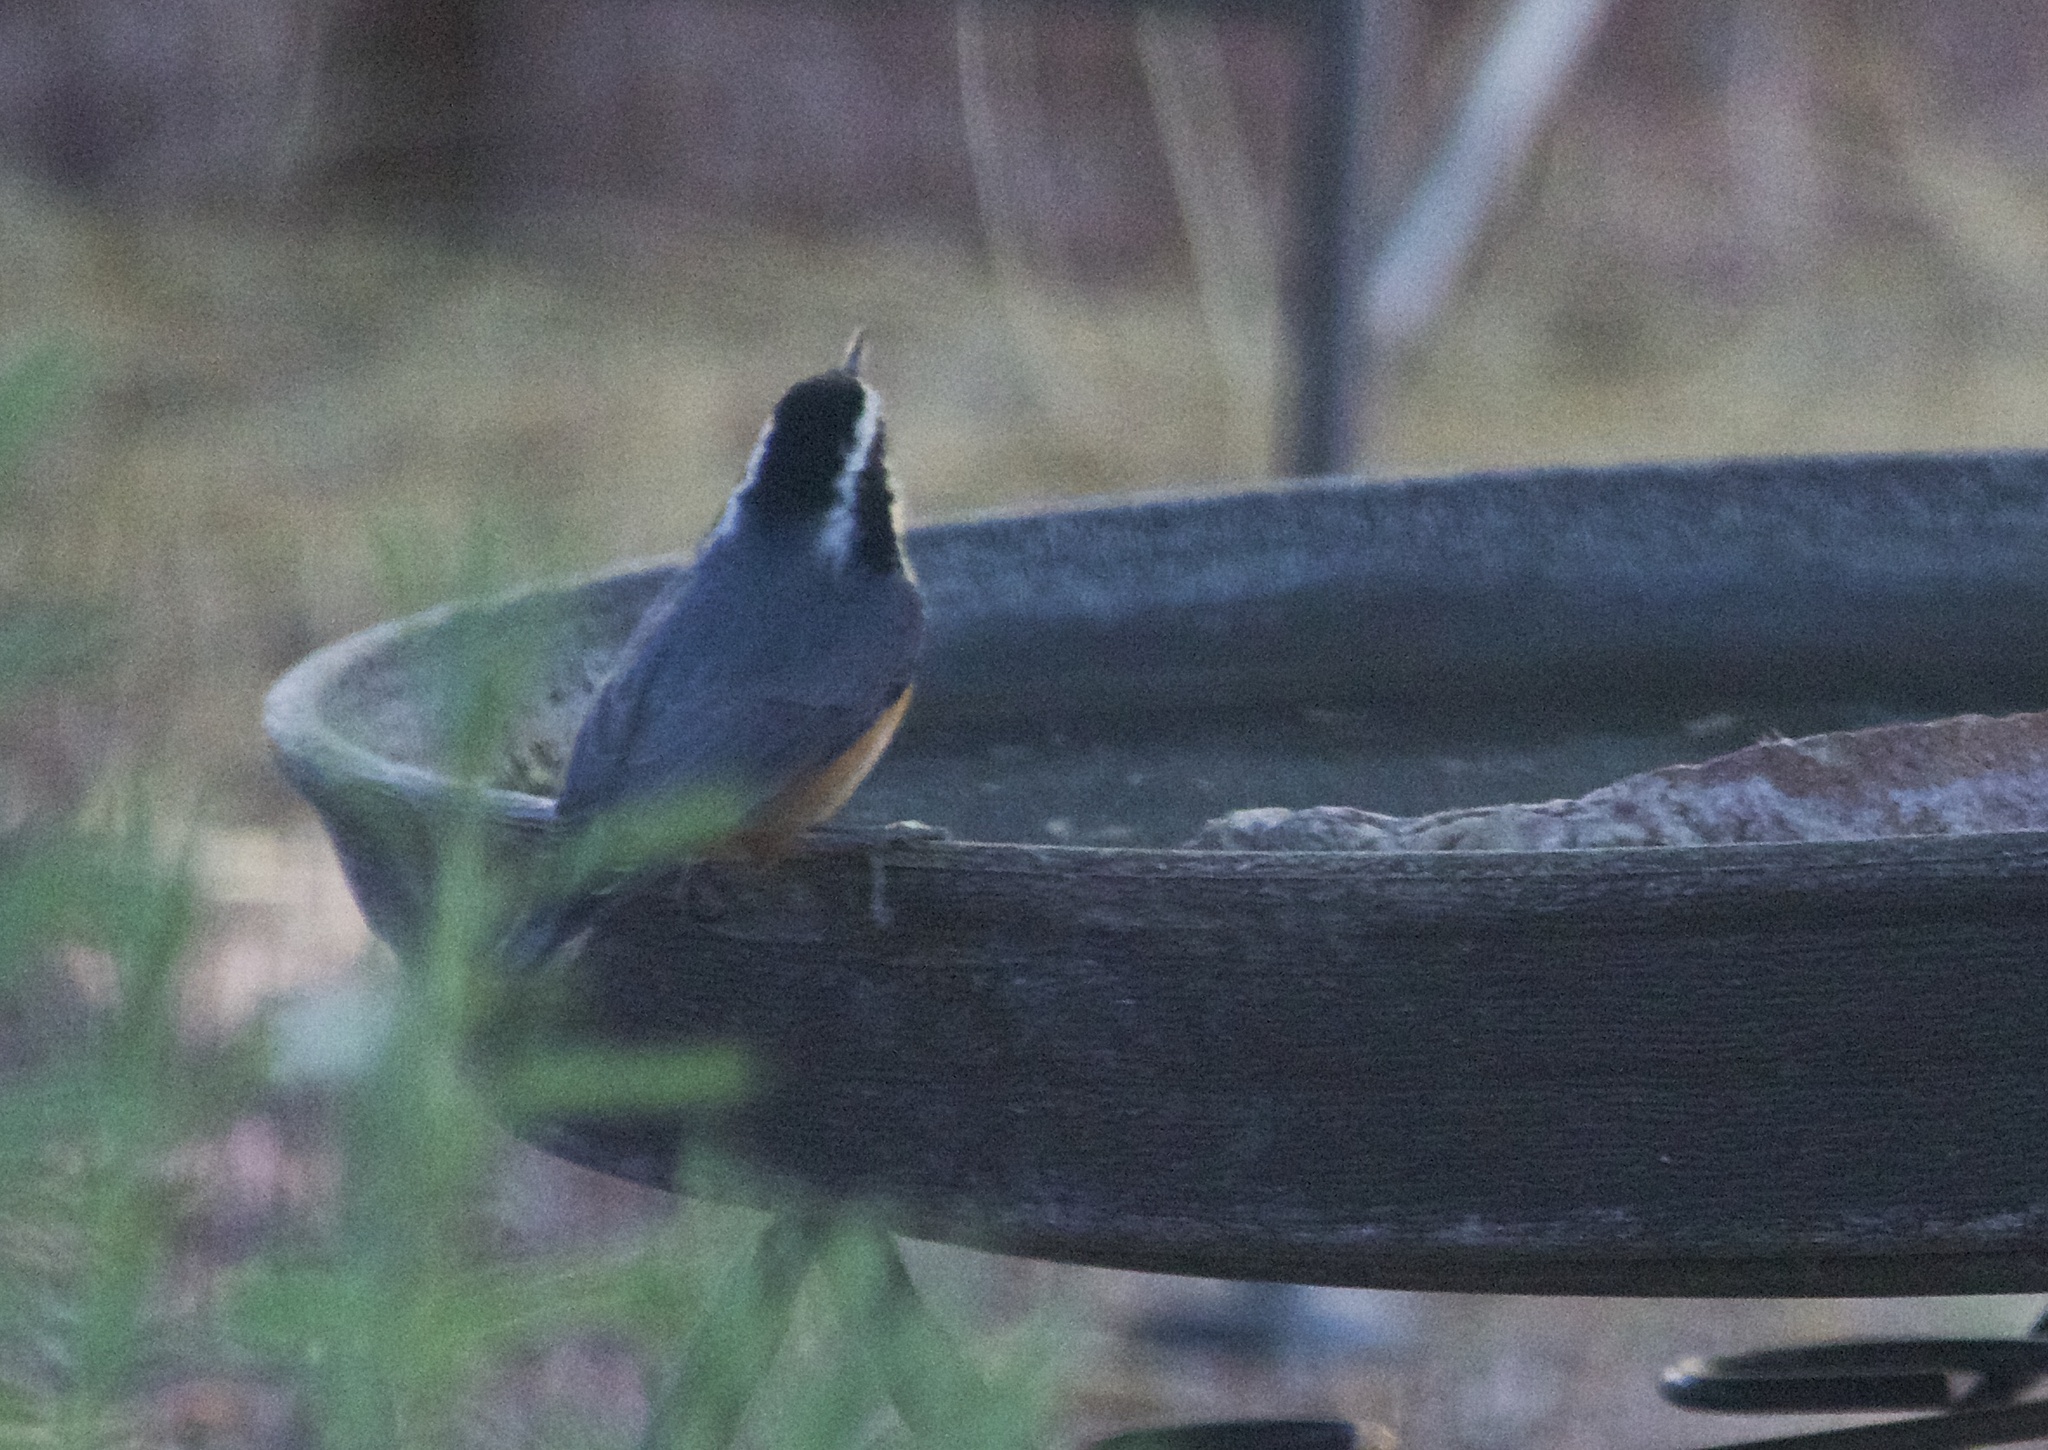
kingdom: Animalia
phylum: Chordata
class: Aves
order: Passeriformes
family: Sittidae
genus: Sitta
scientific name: Sitta canadensis
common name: Red-breasted nuthatch
